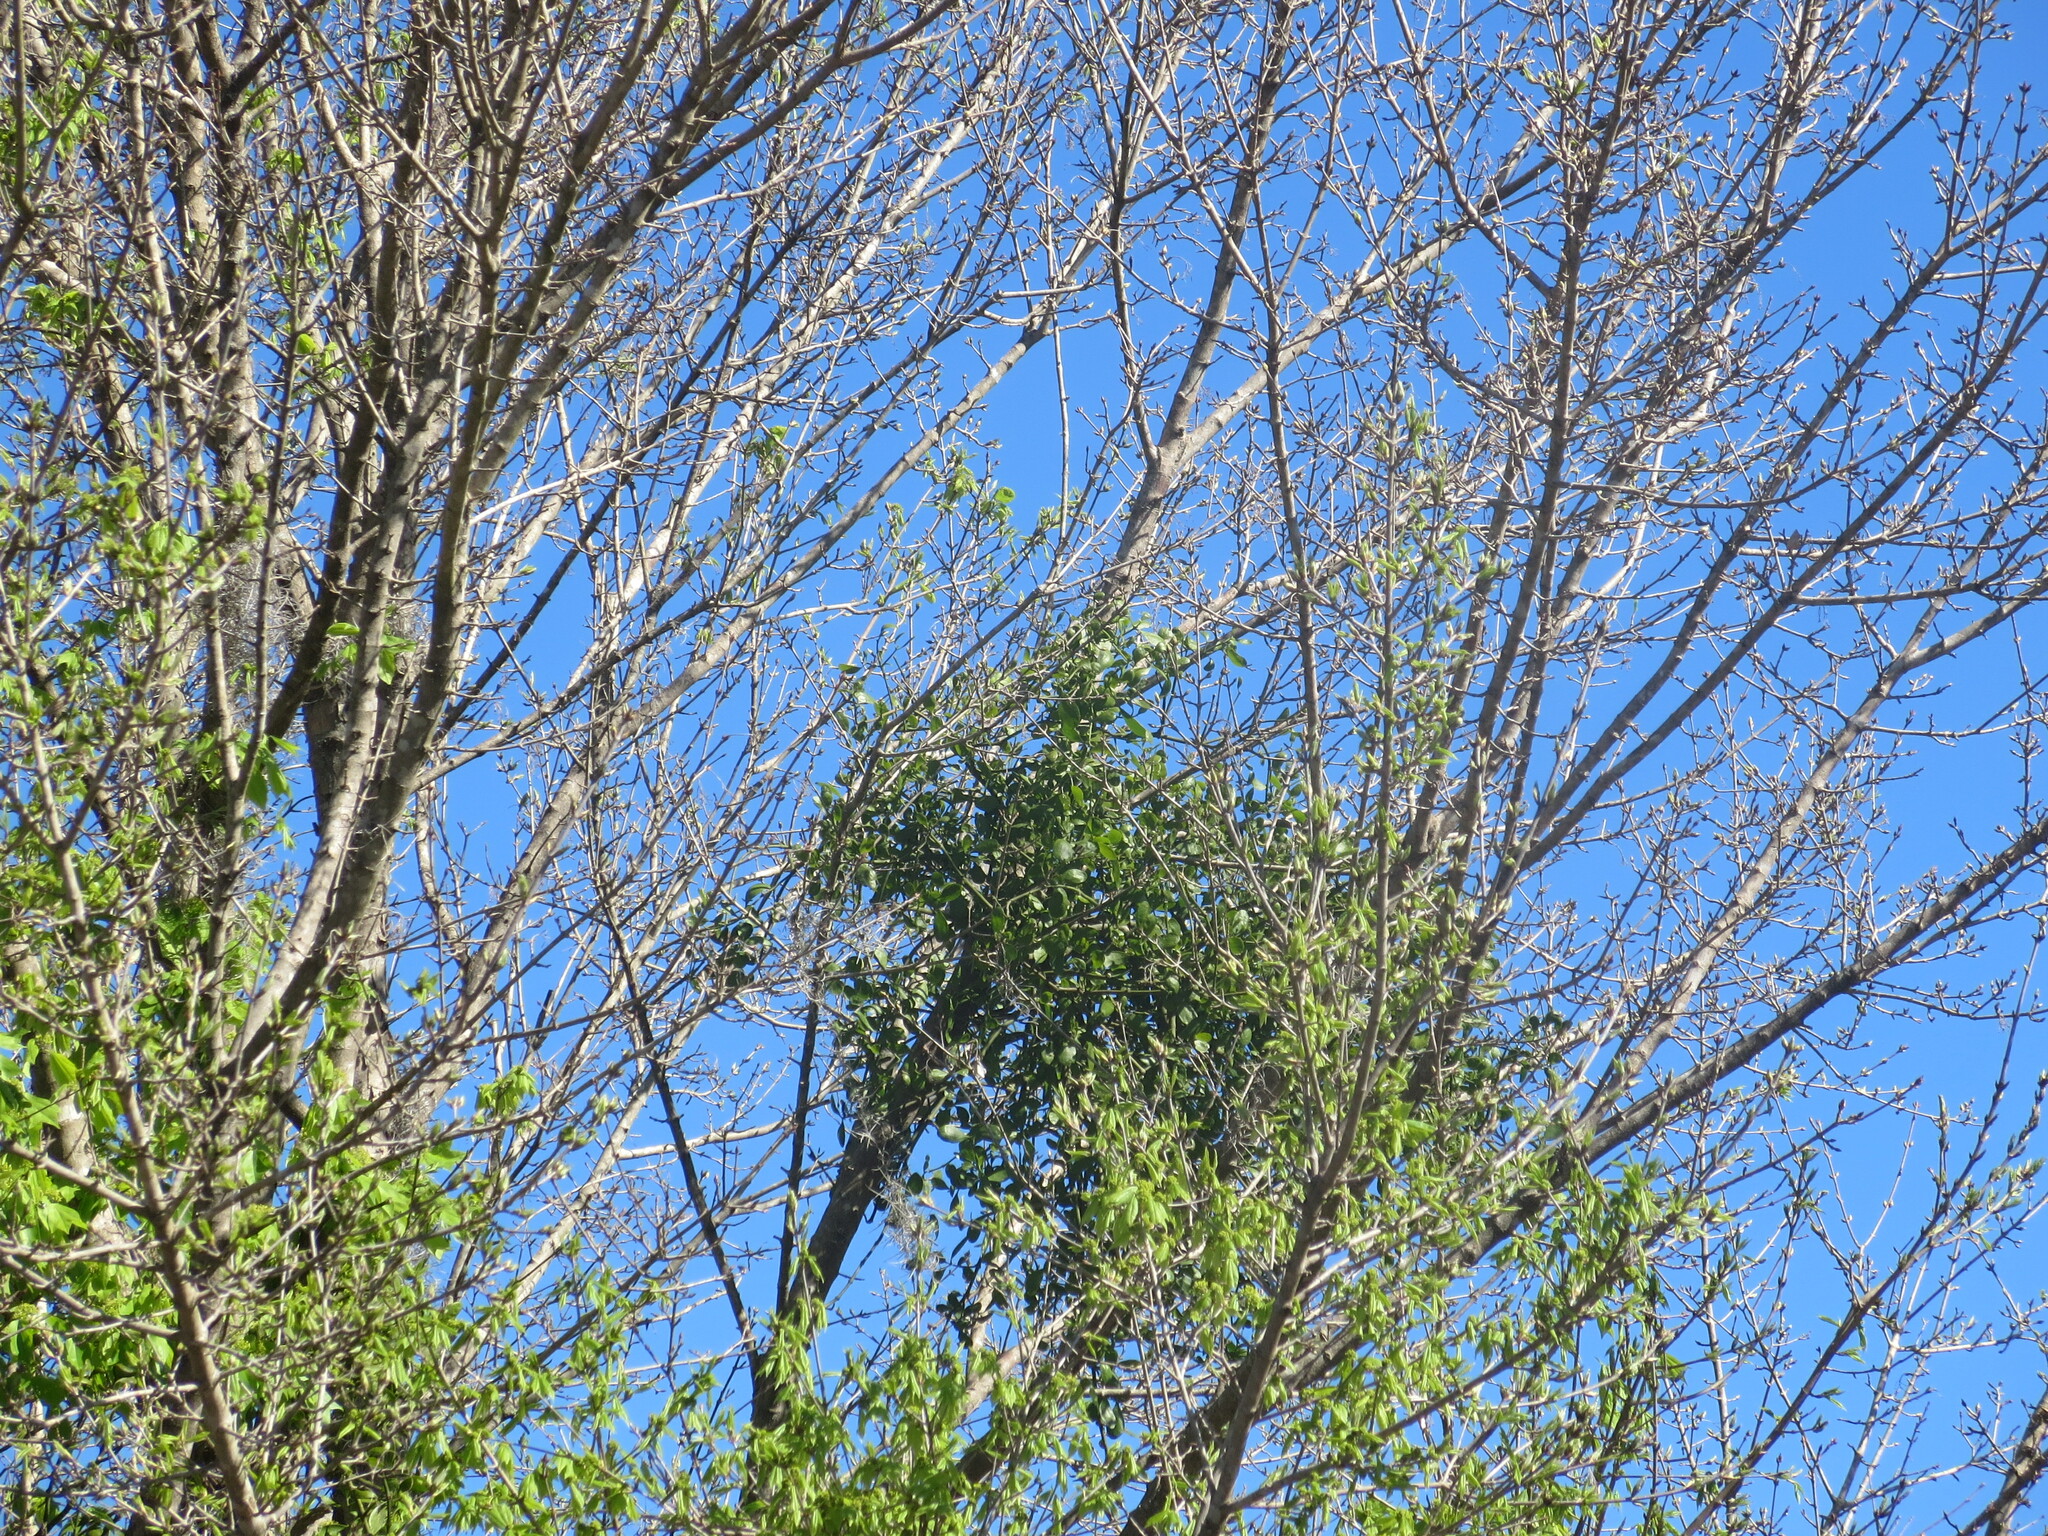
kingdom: Plantae
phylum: Tracheophyta
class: Magnoliopsida
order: Santalales
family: Viscaceae
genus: Phoradendron
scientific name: Phoradendron leucarpum
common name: Pacific mistletoe
